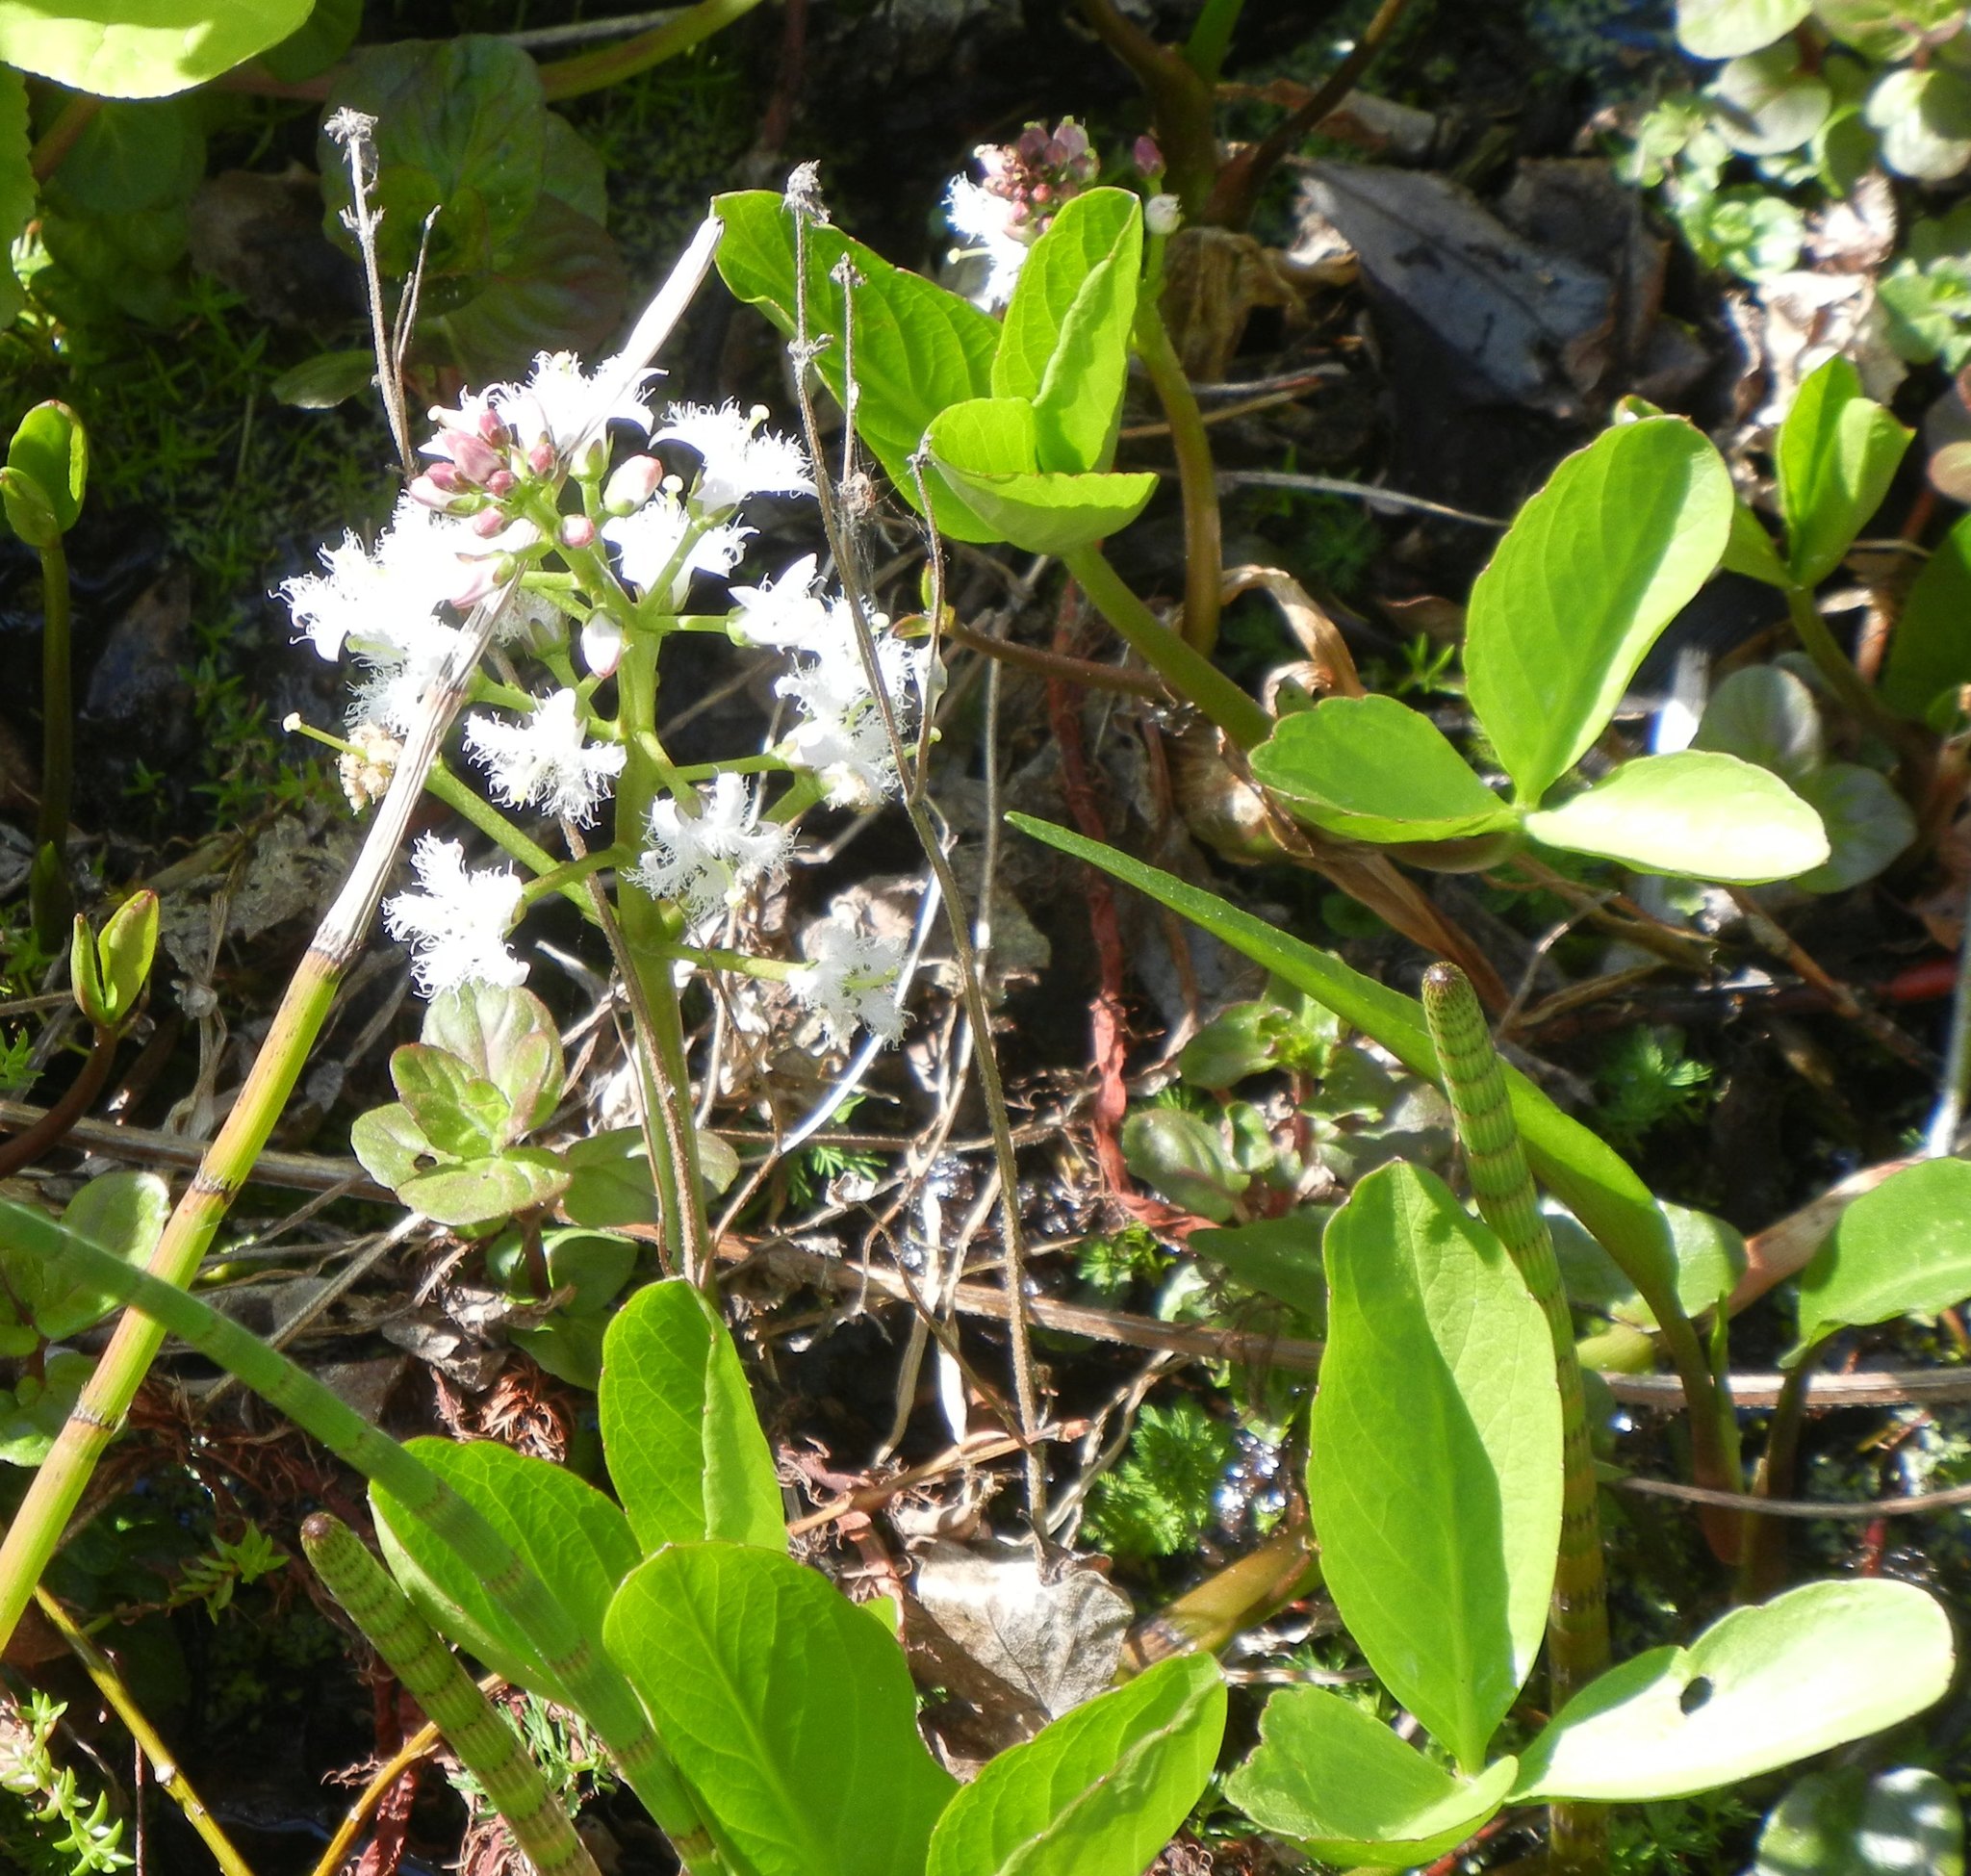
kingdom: Plantae
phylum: Tracheophyta
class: Magnoliopsida
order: Asterales
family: Menyanthaceae
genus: Menyanthes
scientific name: Menyanthes trifoliata
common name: Bogbean
